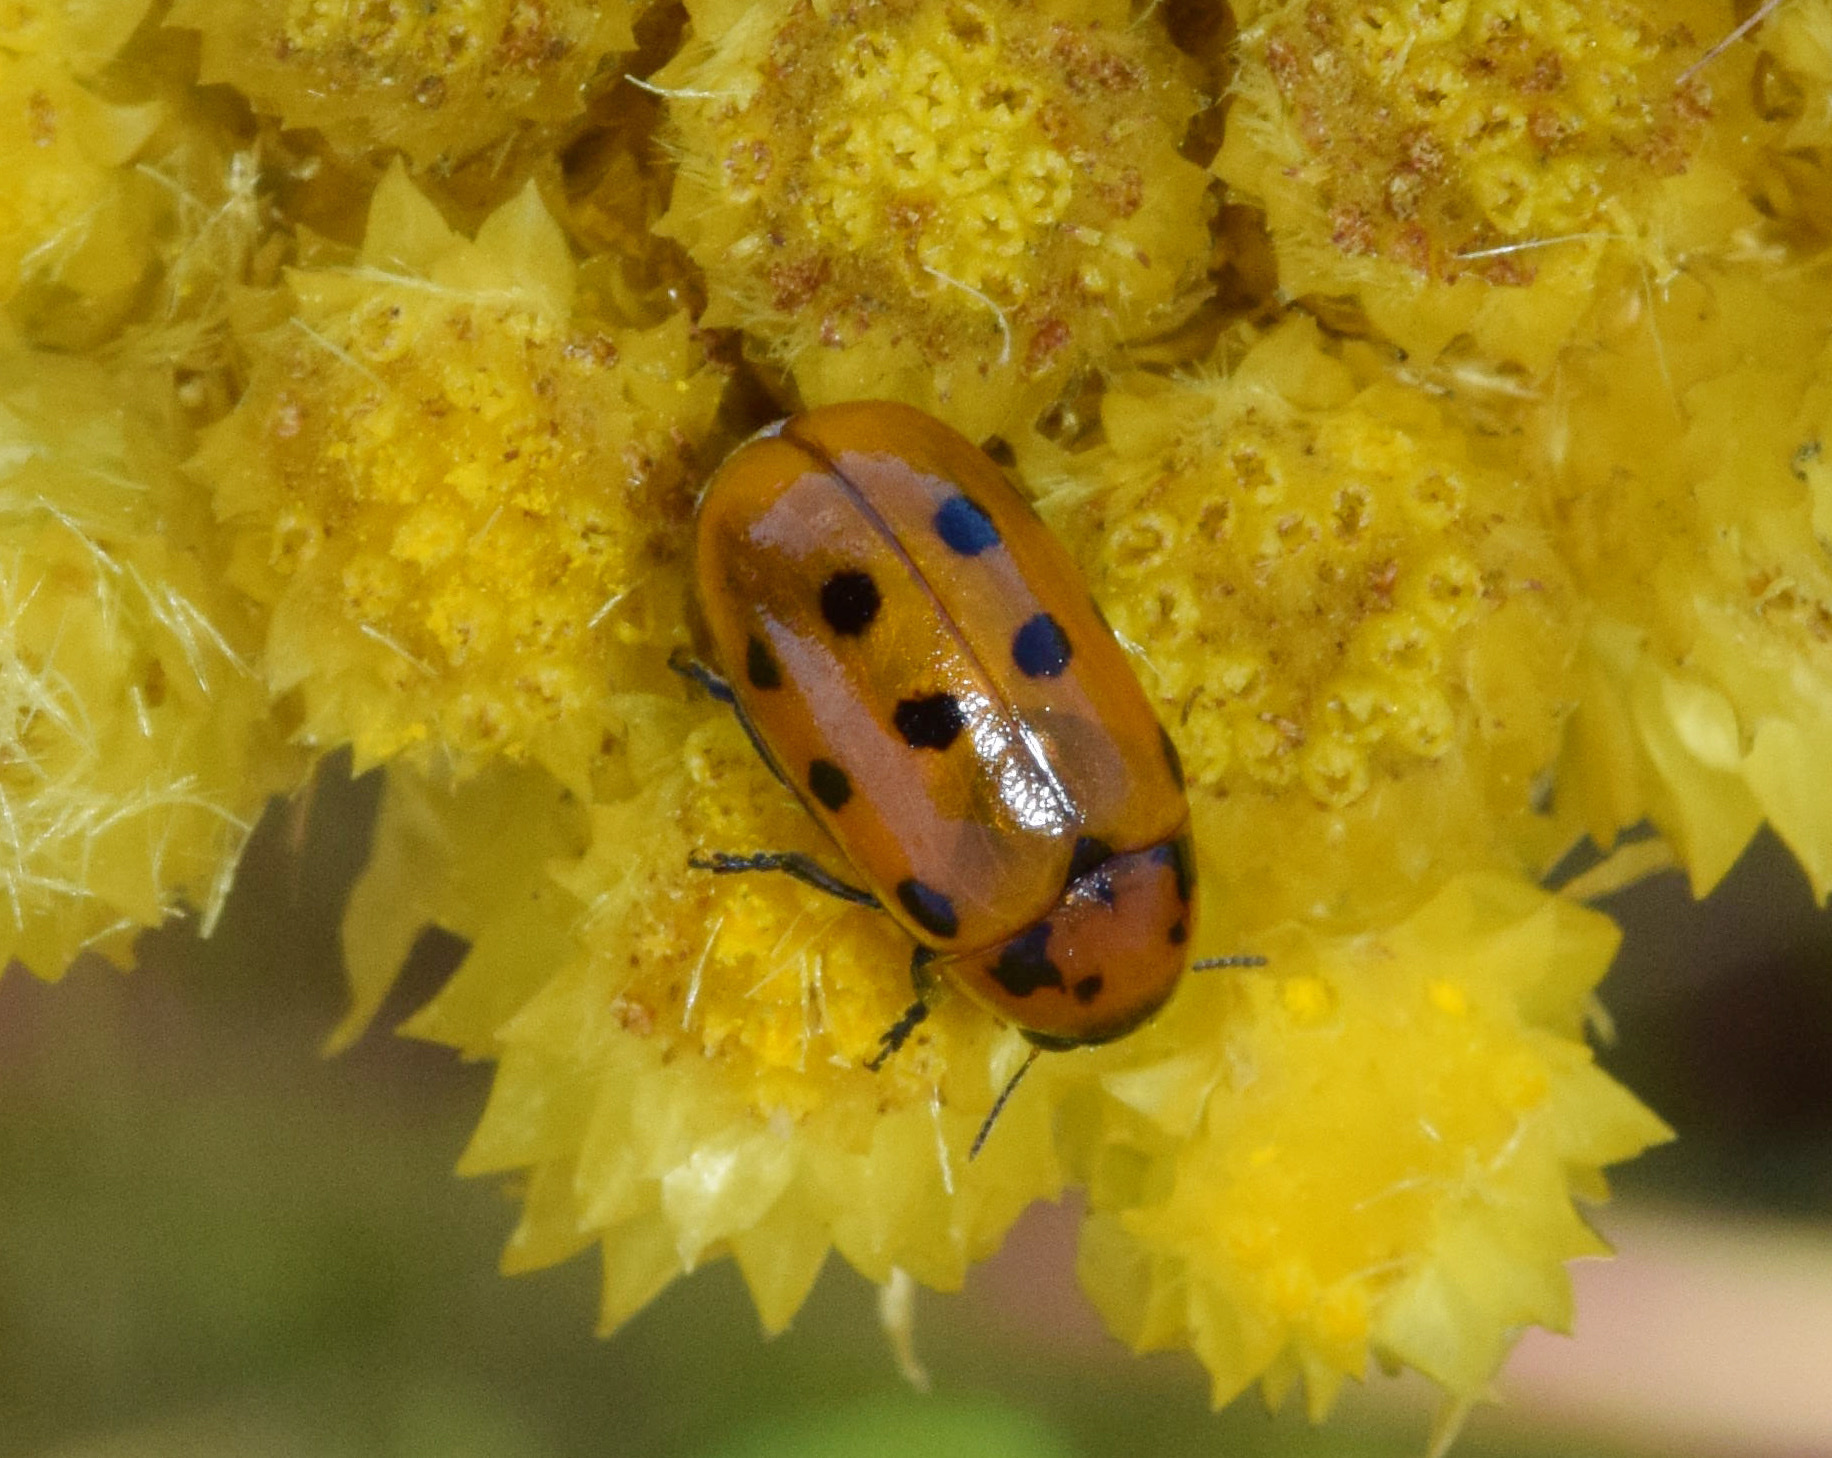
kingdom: Plantae
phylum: Tracheophyta
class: Magnoliopsida
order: Asterales
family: Asteraceae
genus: Helichrysum
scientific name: Helichrysum appendiculatum
